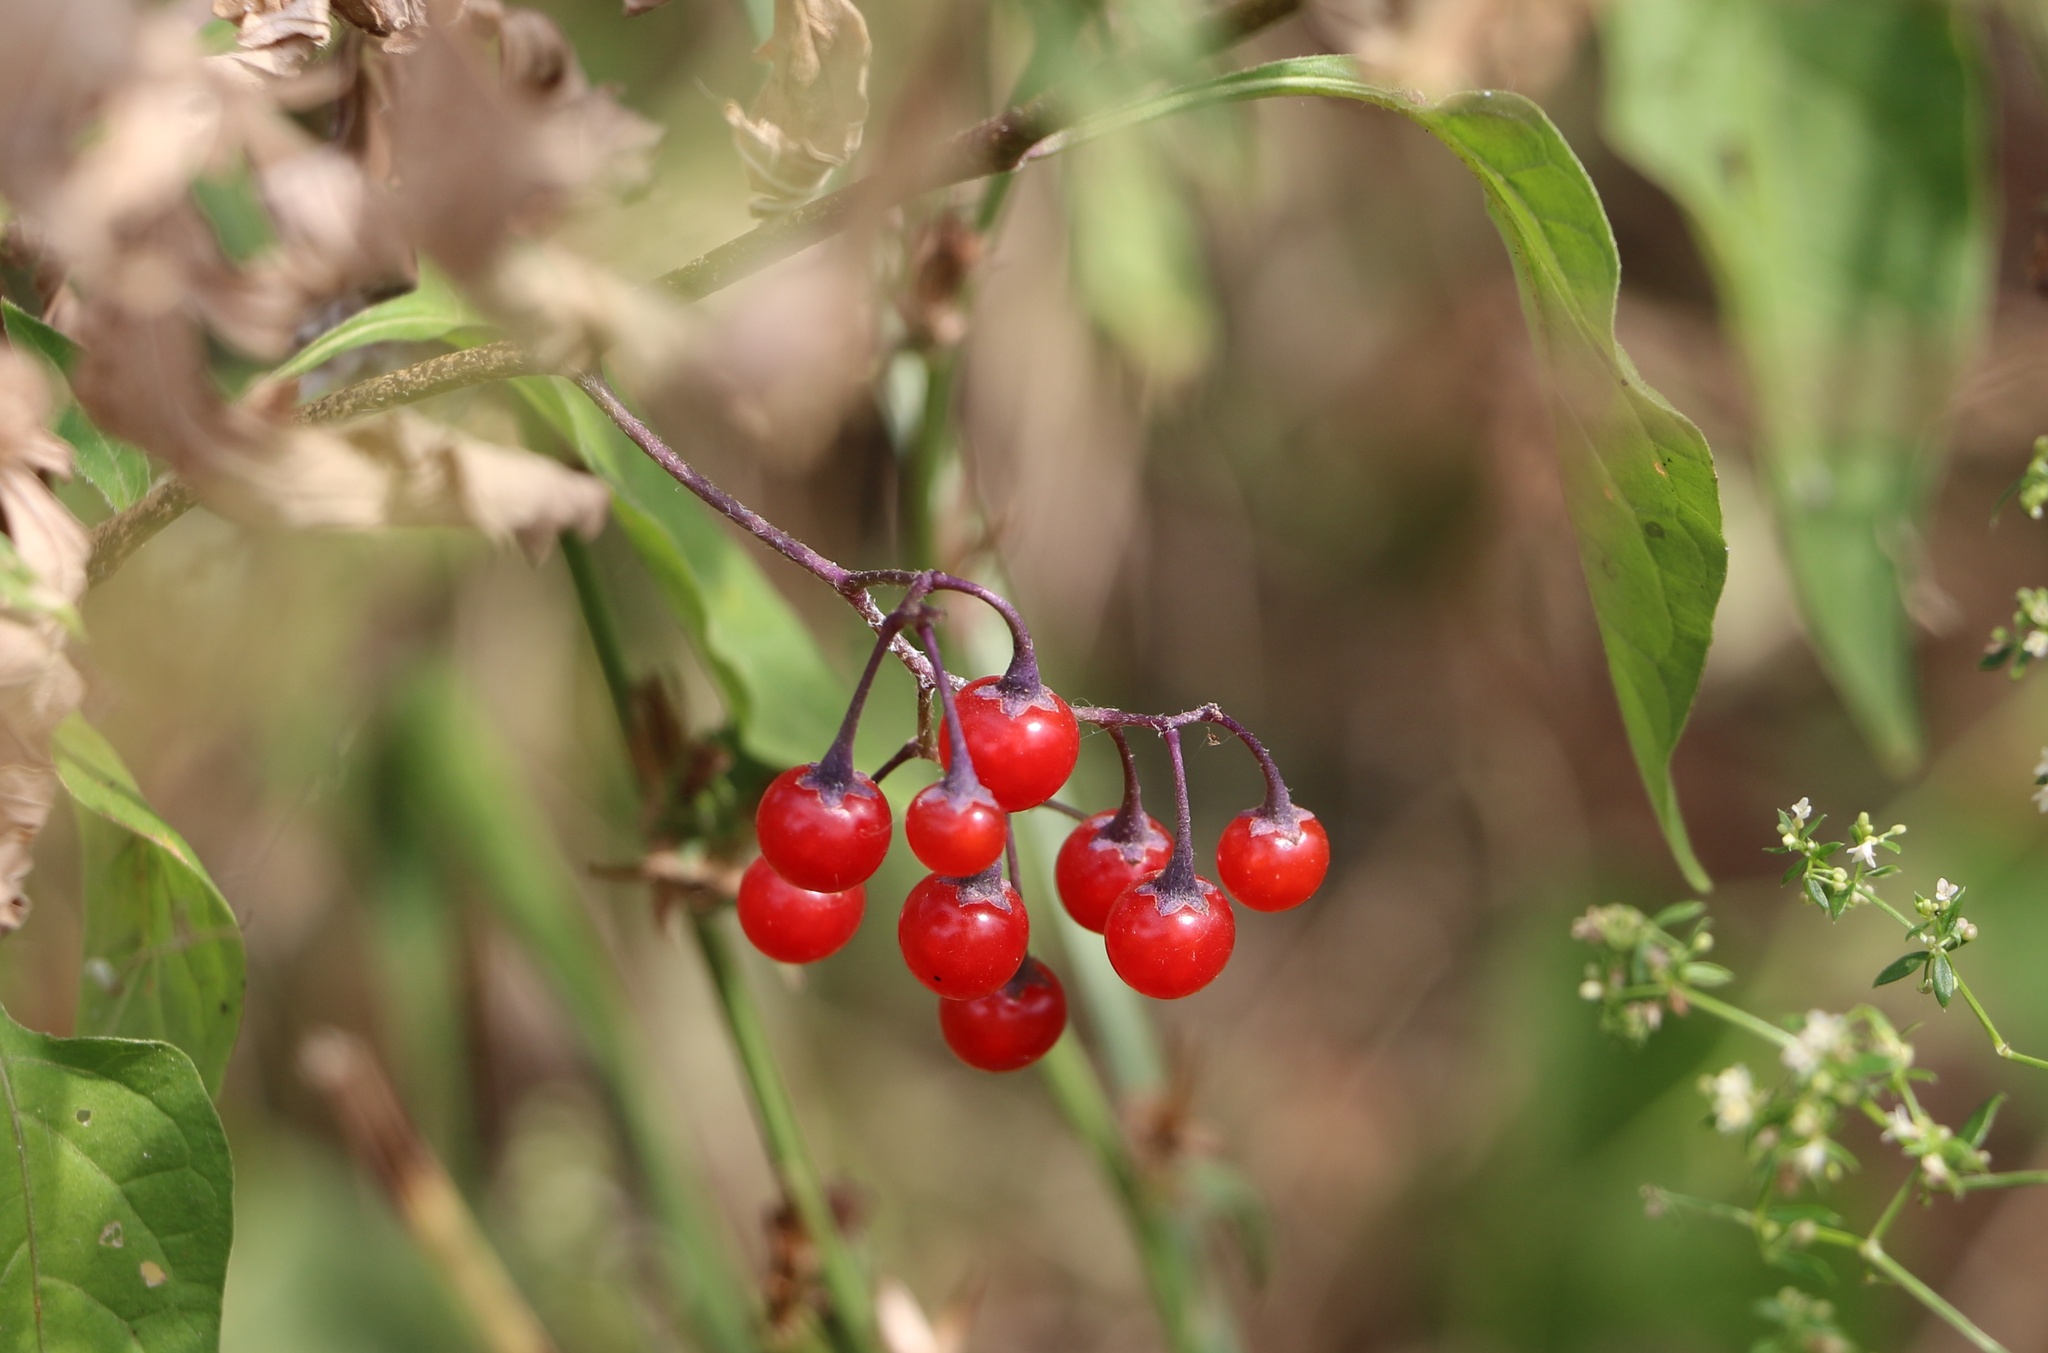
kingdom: Plantae
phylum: Tracheophyta
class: Magnoliopsida
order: Solanales
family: Solanaceae
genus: Solanum
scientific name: Solanum dulcamara
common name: Climbing nightshade
